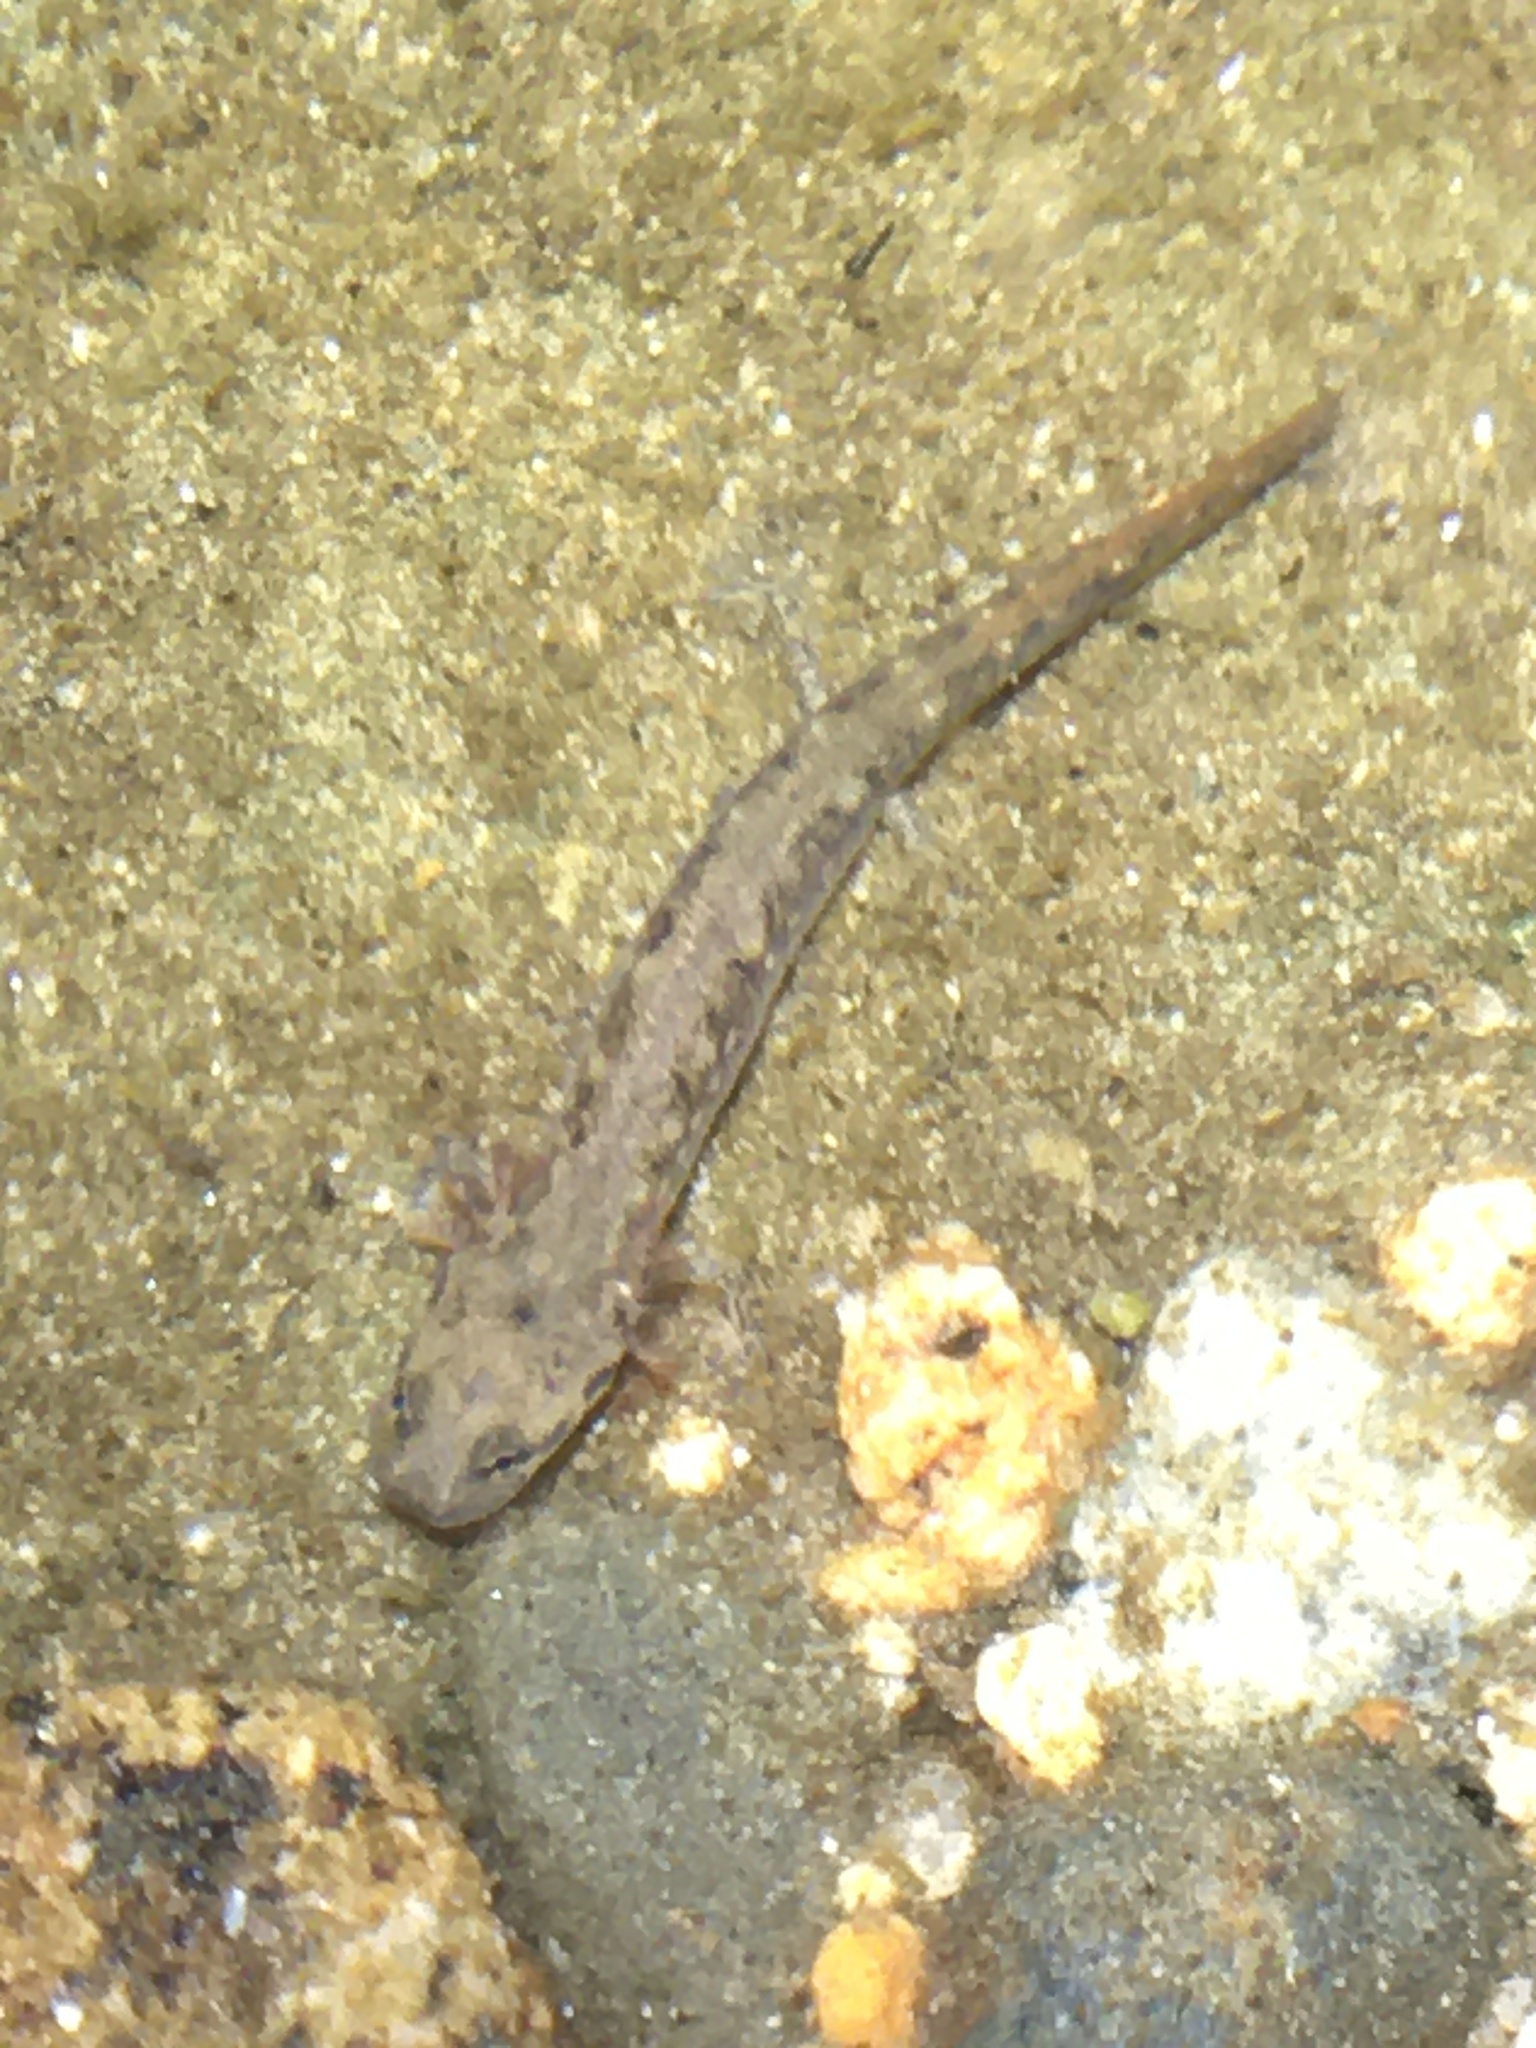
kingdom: Animalia
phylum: Chordata
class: Amphibia
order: Caudata
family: Plethodontidae
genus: Eurycea
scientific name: Eurycea bislineata
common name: Northern two-lined salamander
